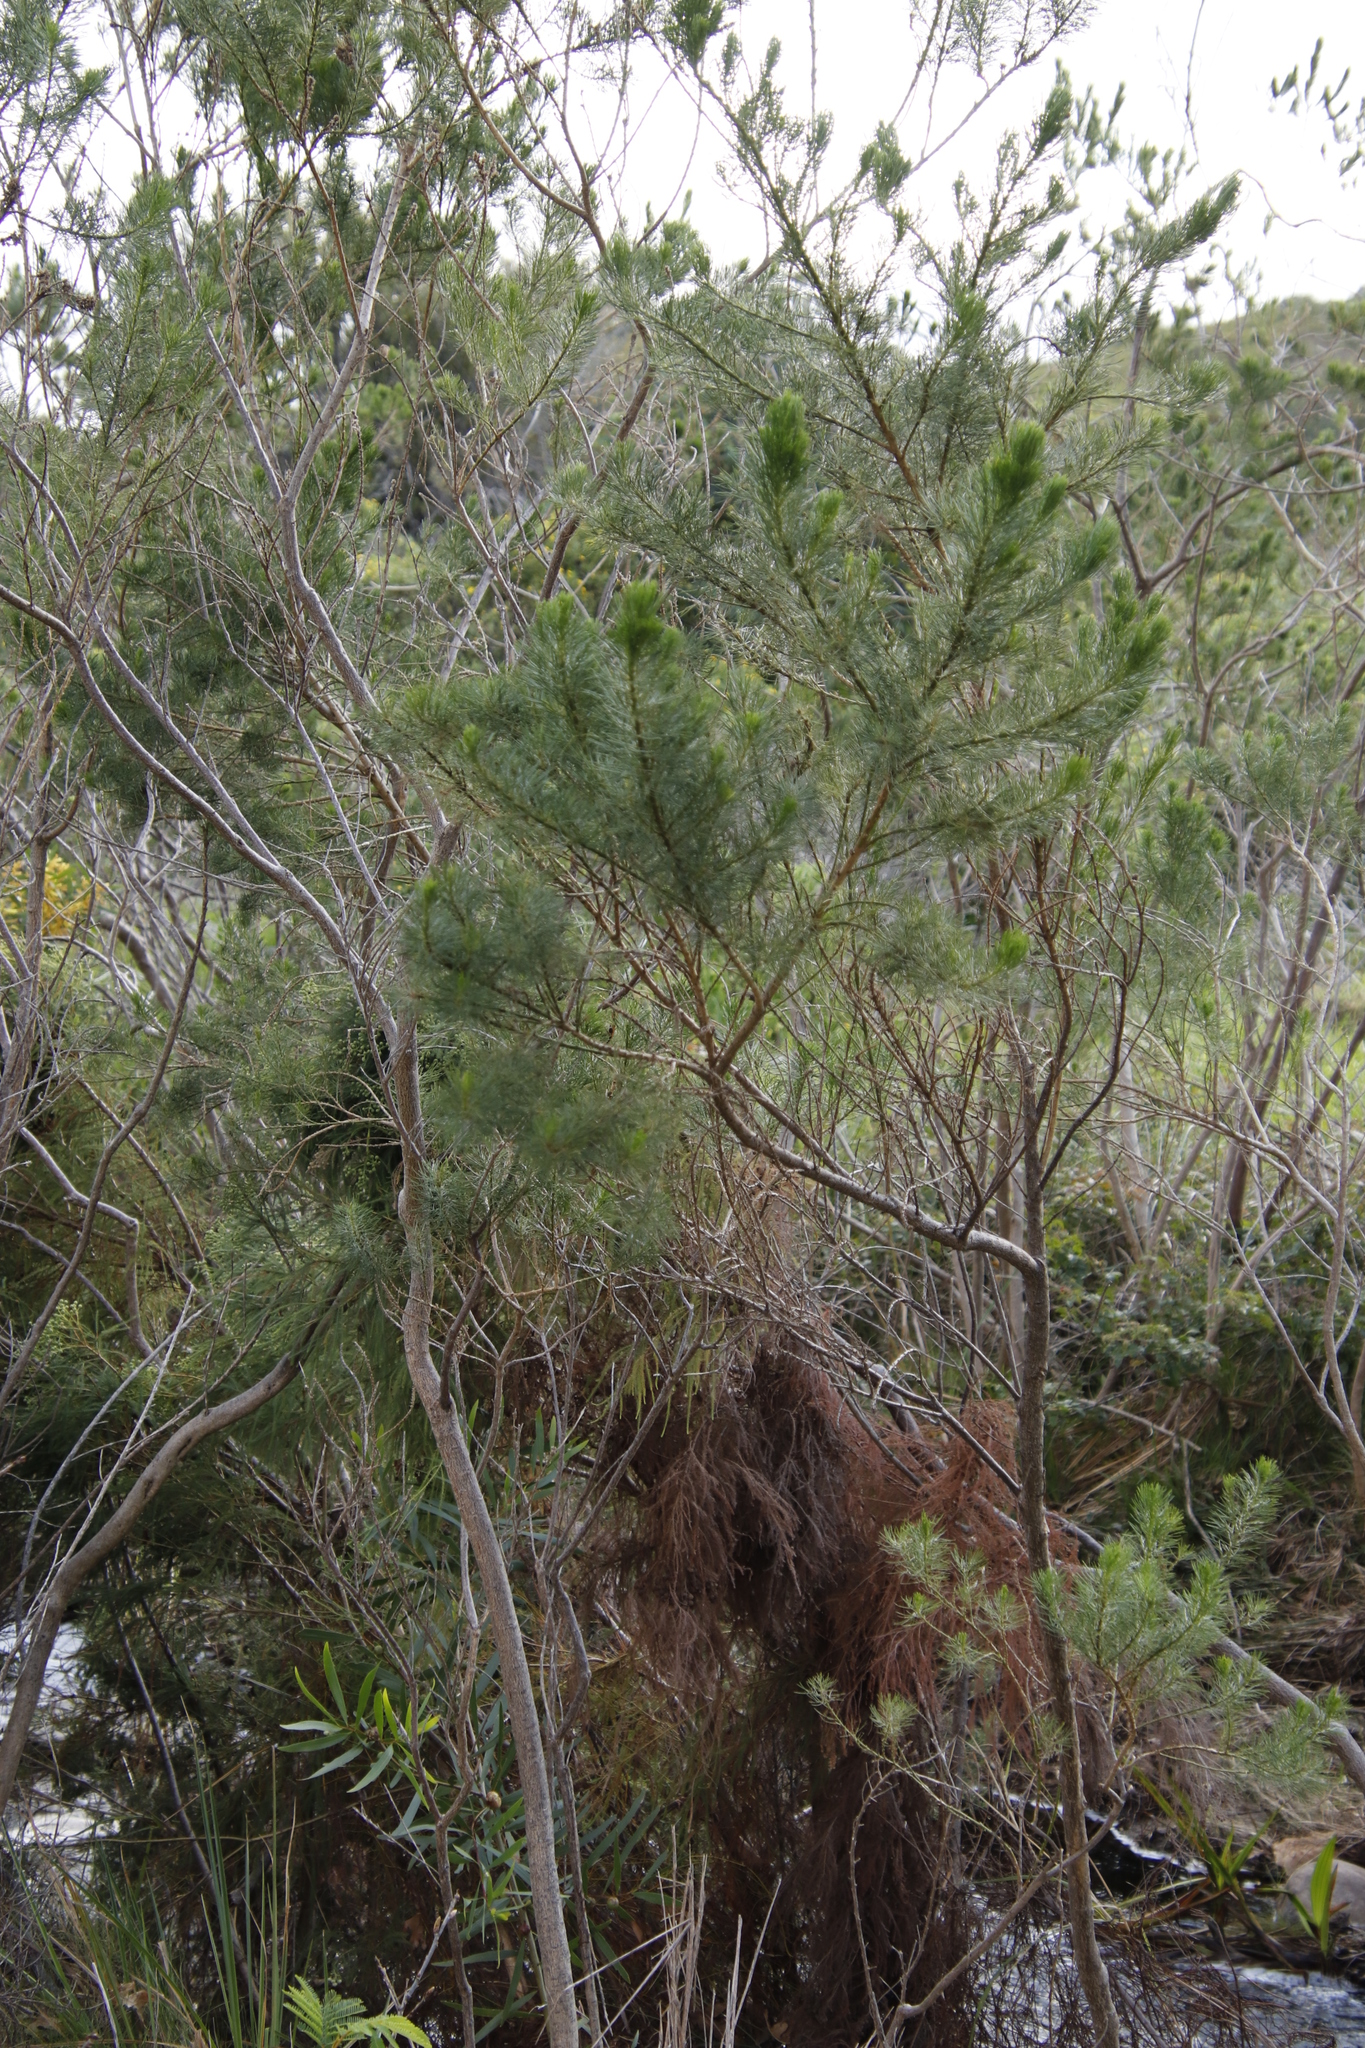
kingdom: Plantae
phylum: Tracheophyta
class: Magnoliopsida
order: Fabales
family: Fabaceae
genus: Psoralea
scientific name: Psoralea pinnata
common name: African scurfpea
